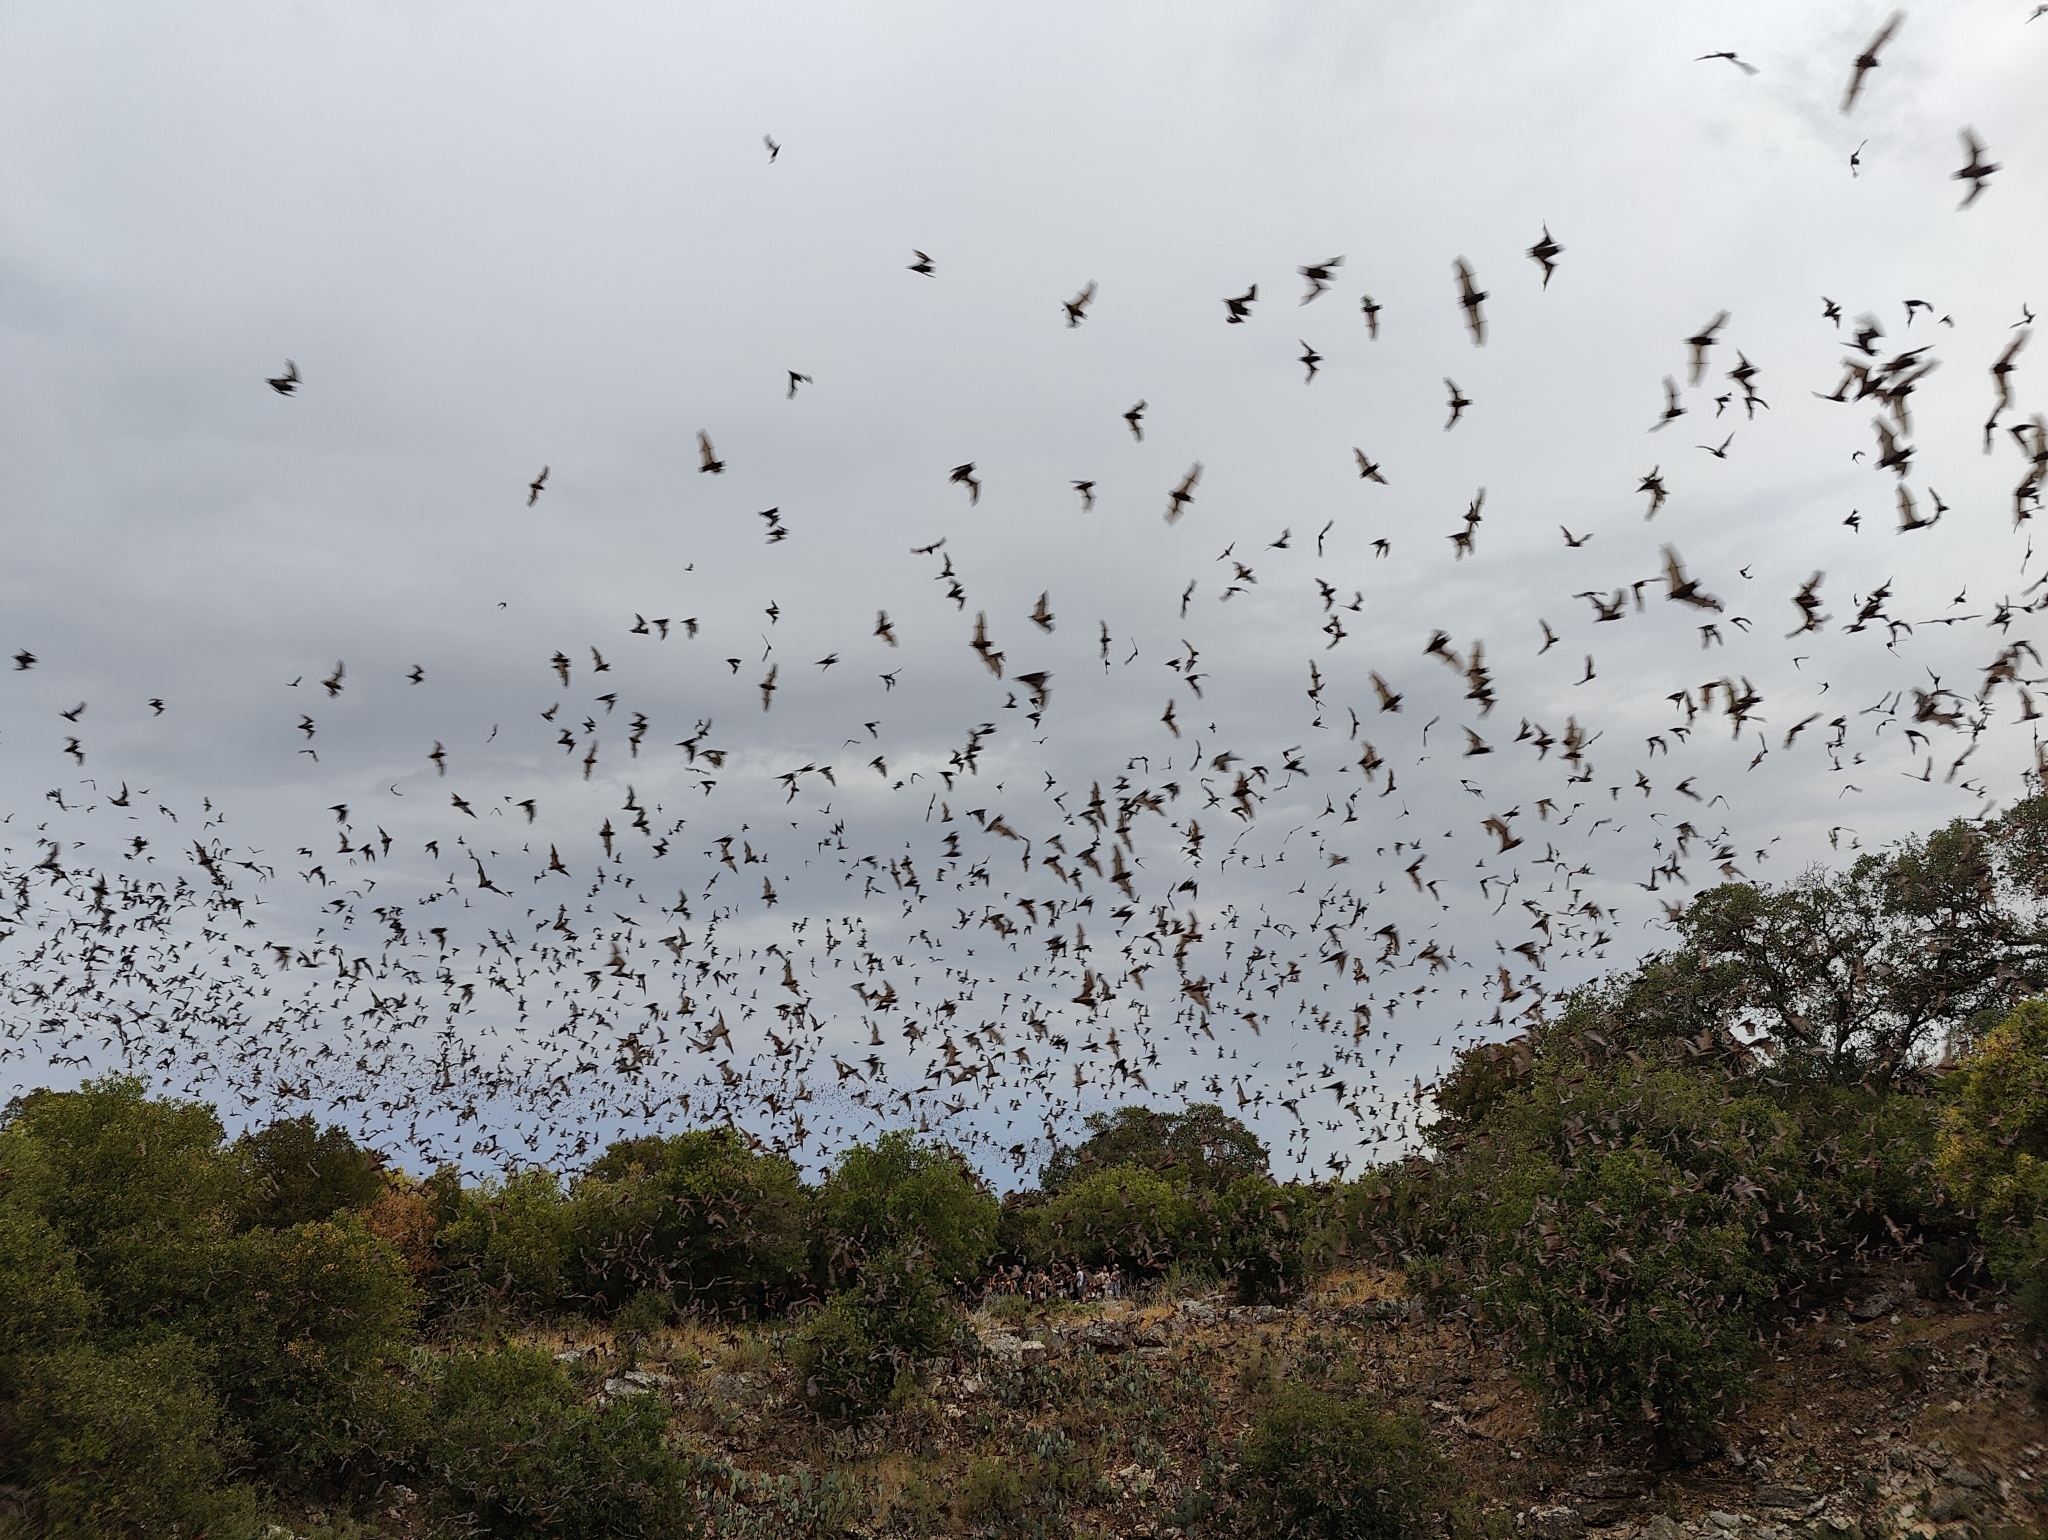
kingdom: Animalia
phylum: Chordata
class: Mammalia
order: Chiroptera
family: Molossidae
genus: Tadarida
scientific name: Tadarida brasiliensis
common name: Mexican free-tailed bat
